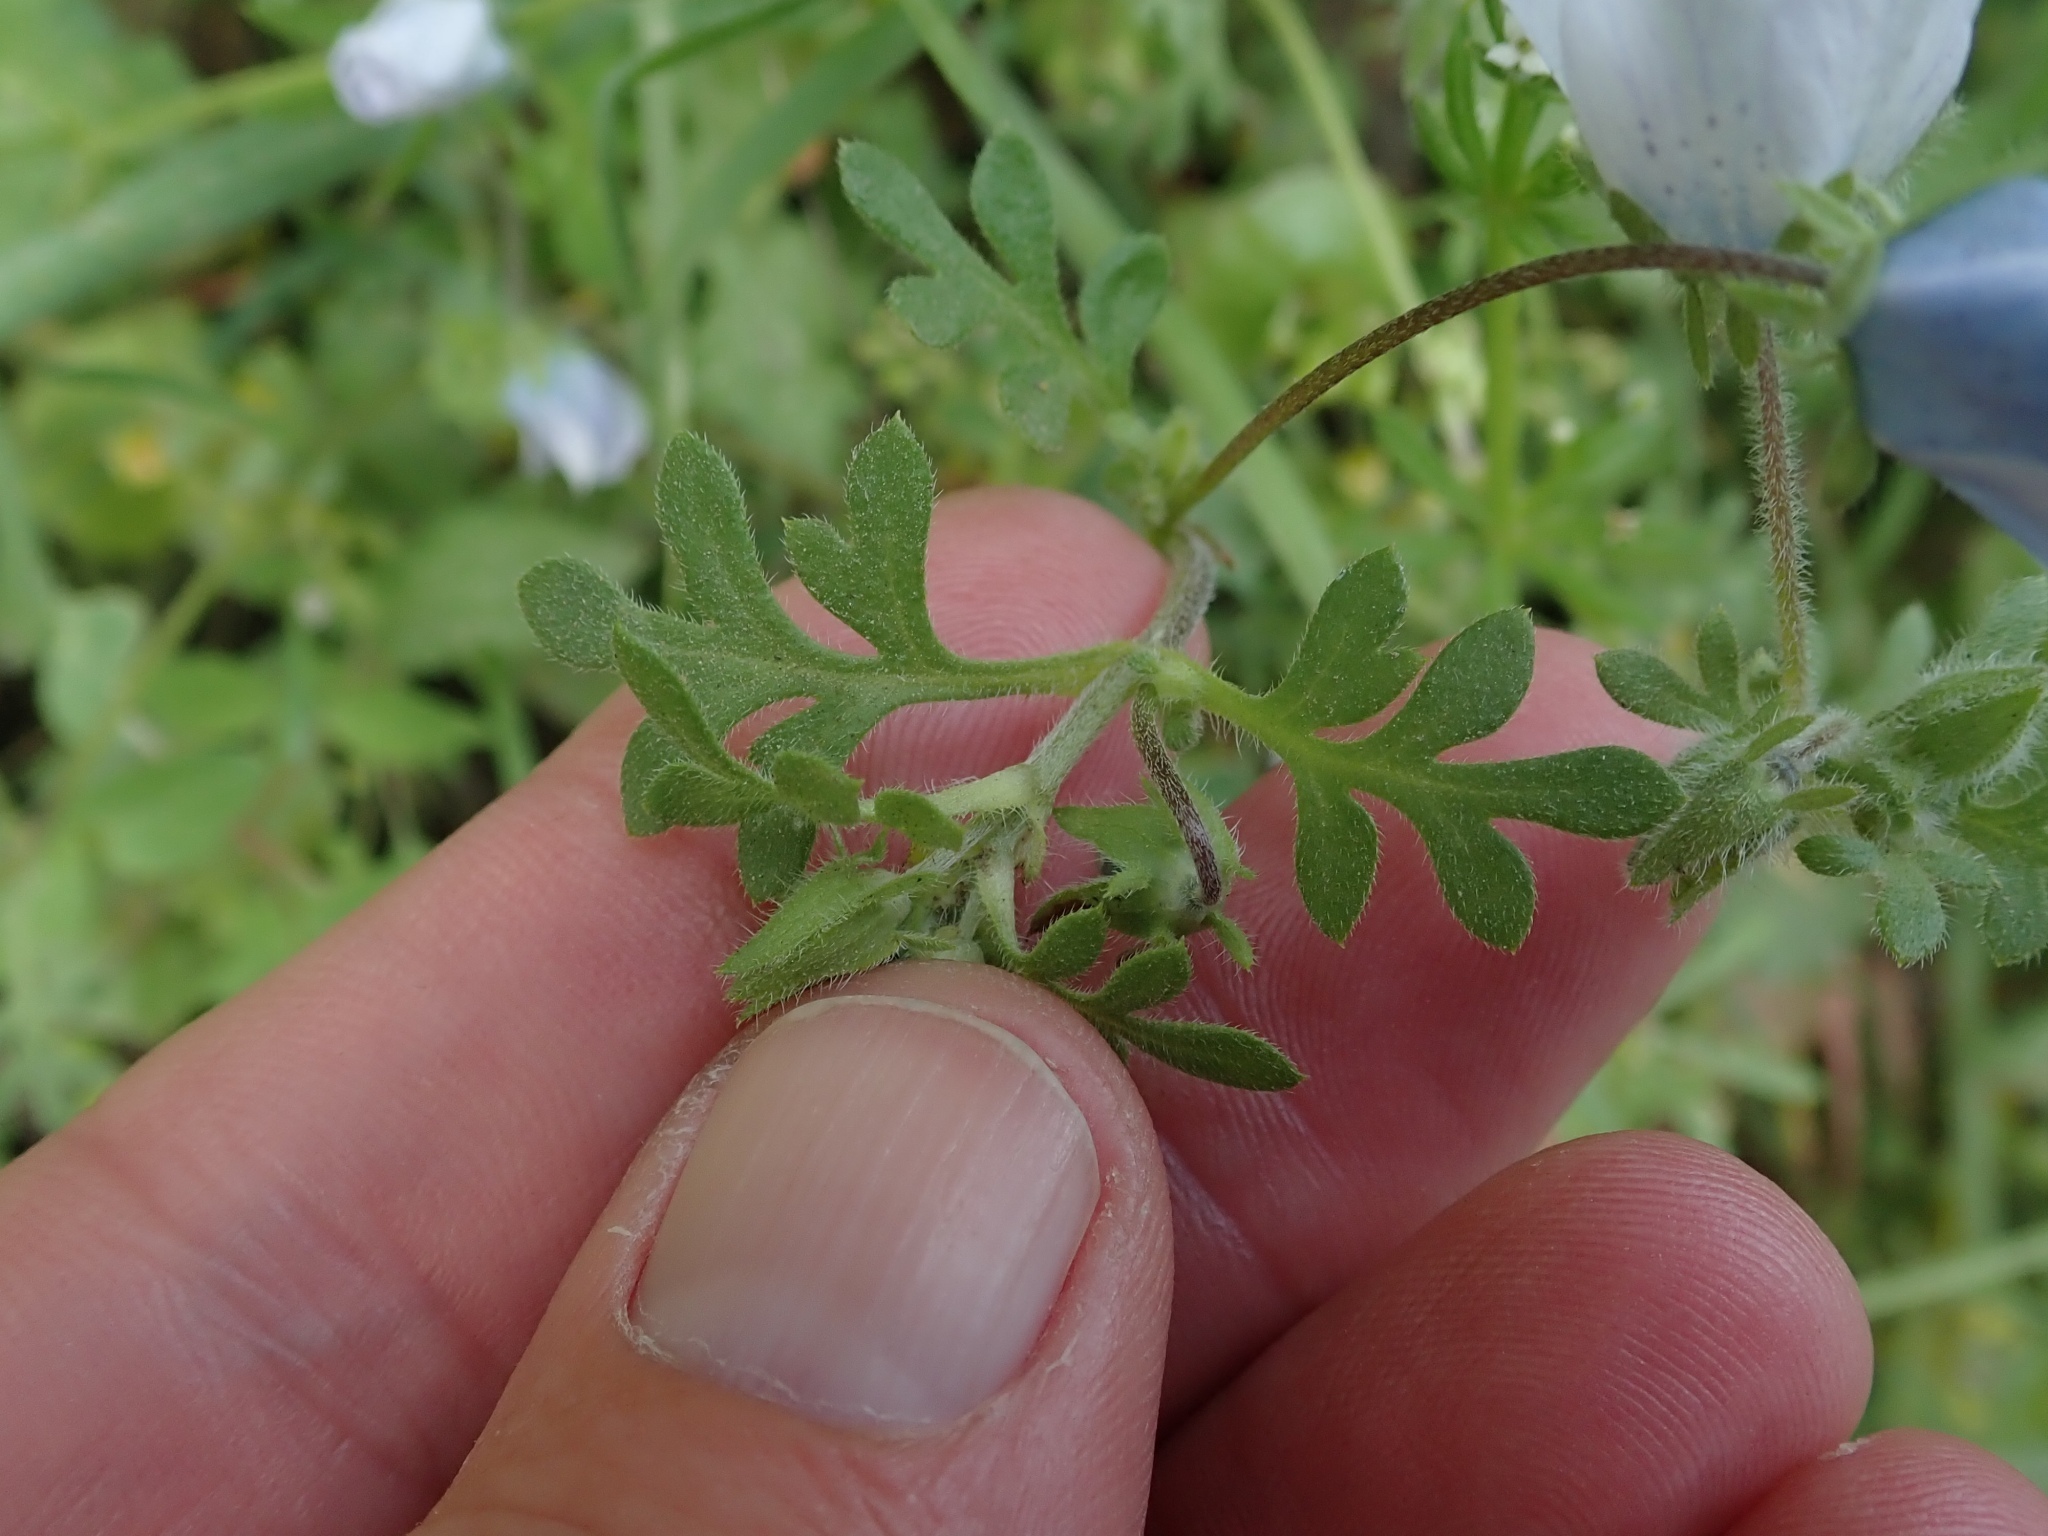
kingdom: Plantae
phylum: Tracheophyta
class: Magnoliopsida
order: Boraginales
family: Hydrophyllaceae
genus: Nemophila
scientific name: Nemophila menziesii
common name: Baby's-blue-eyes
